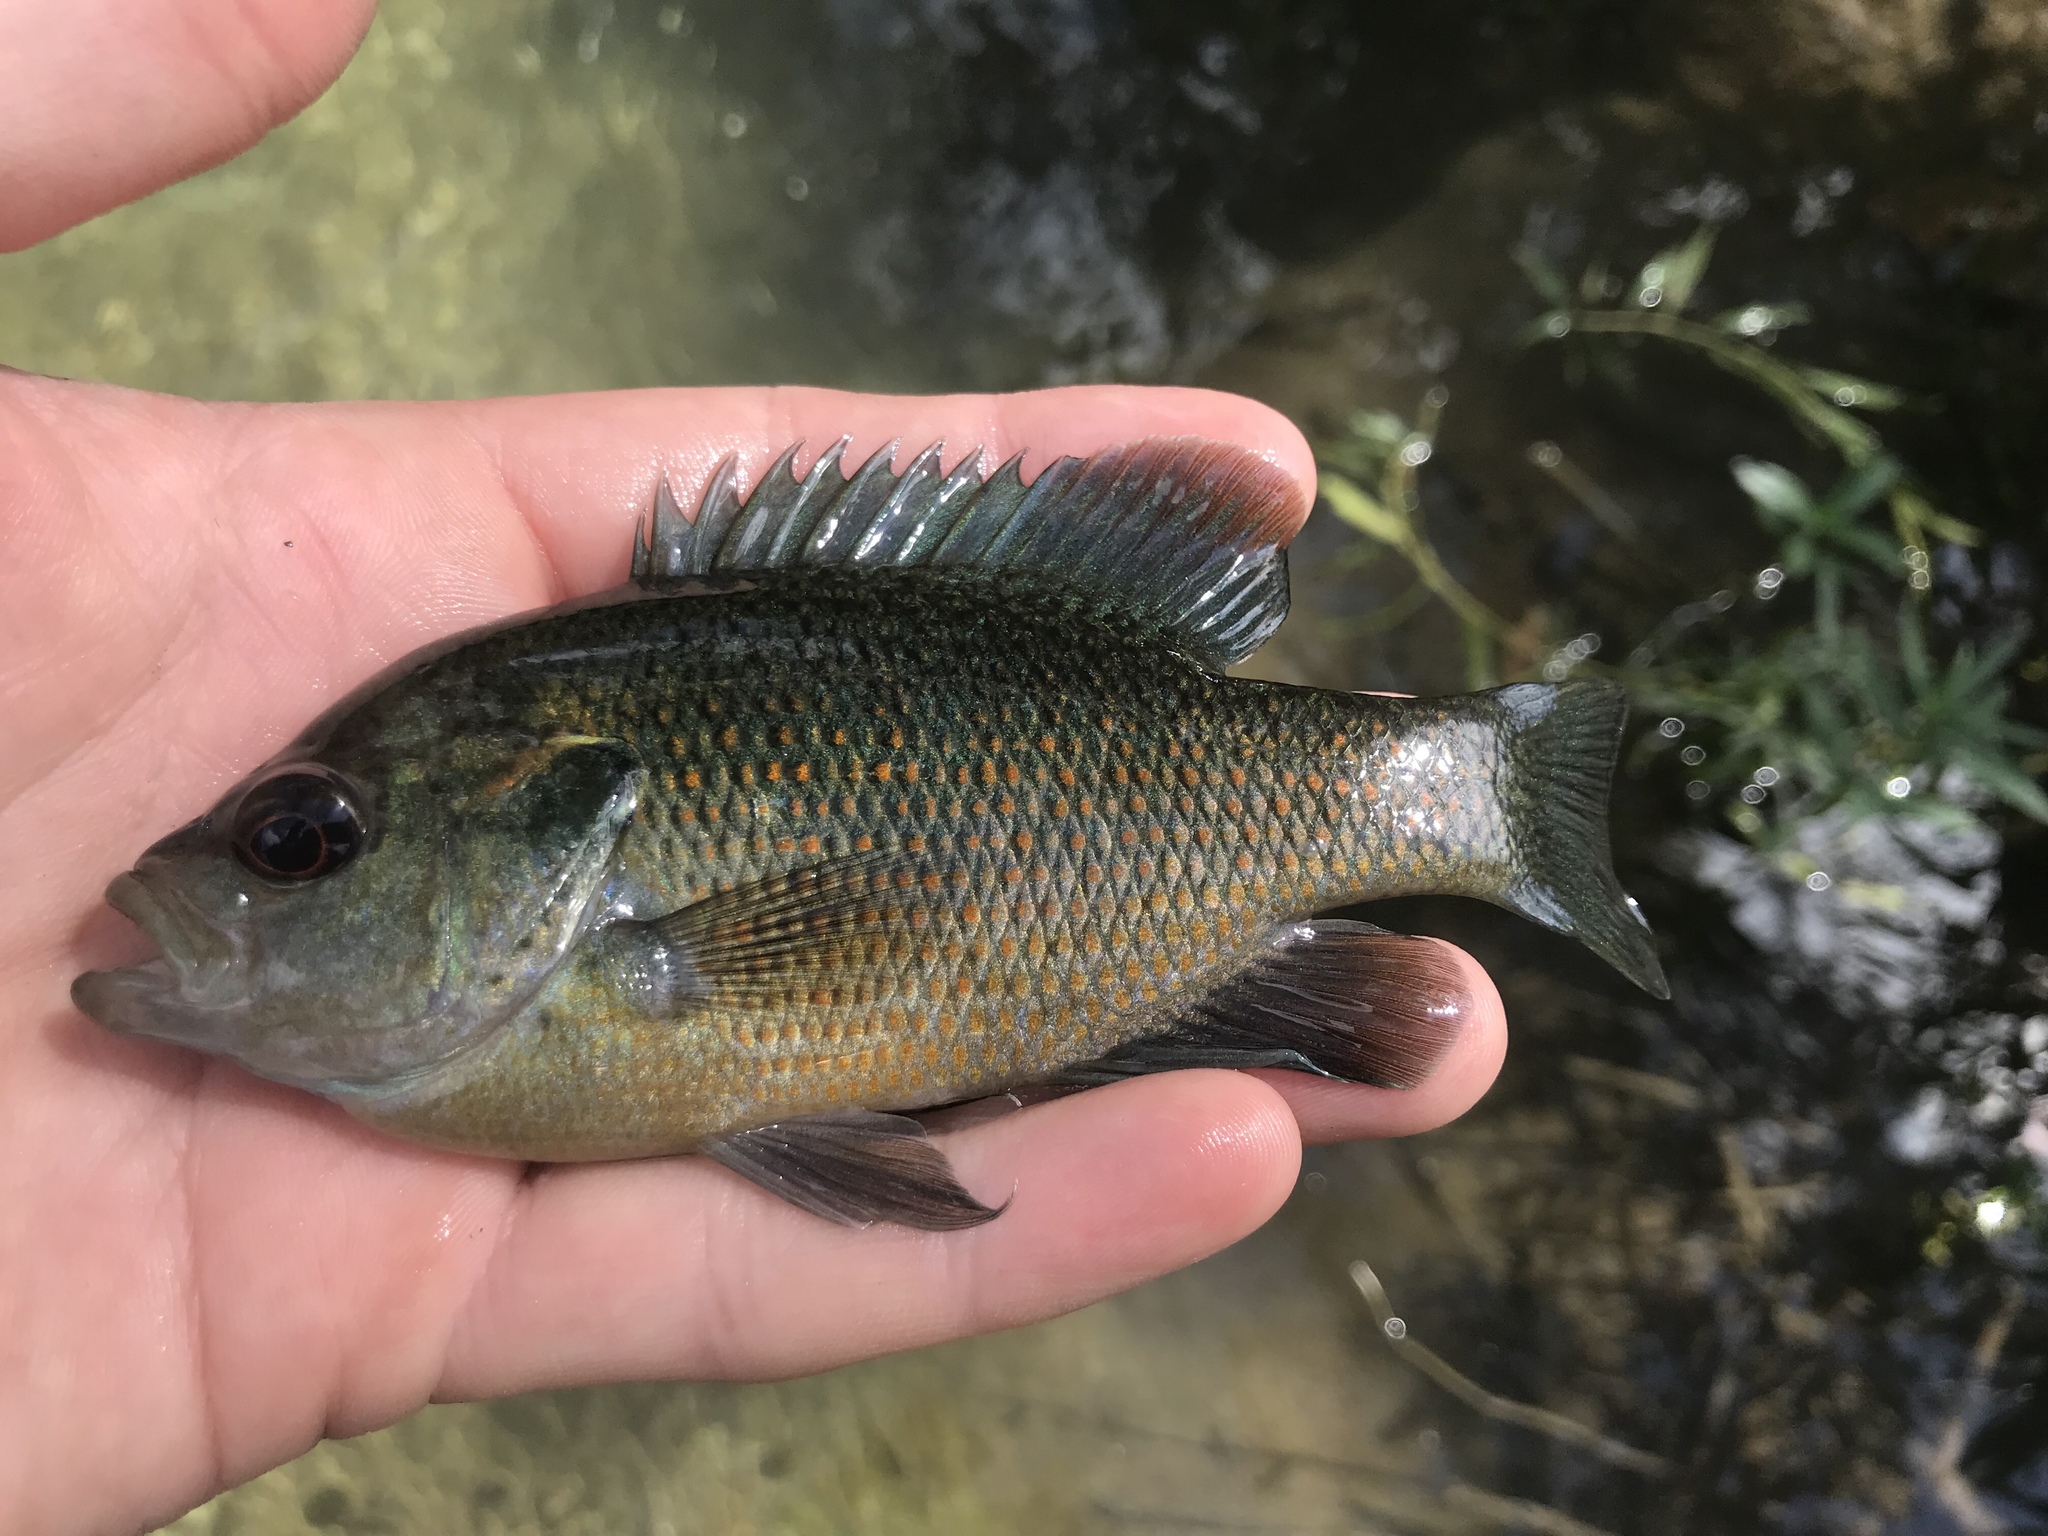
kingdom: Animalia
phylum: Chordata
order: Perciformes
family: Centrarchidae
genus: Lepomis
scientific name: Lepomis miniatus
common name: Redspotted sunfish
